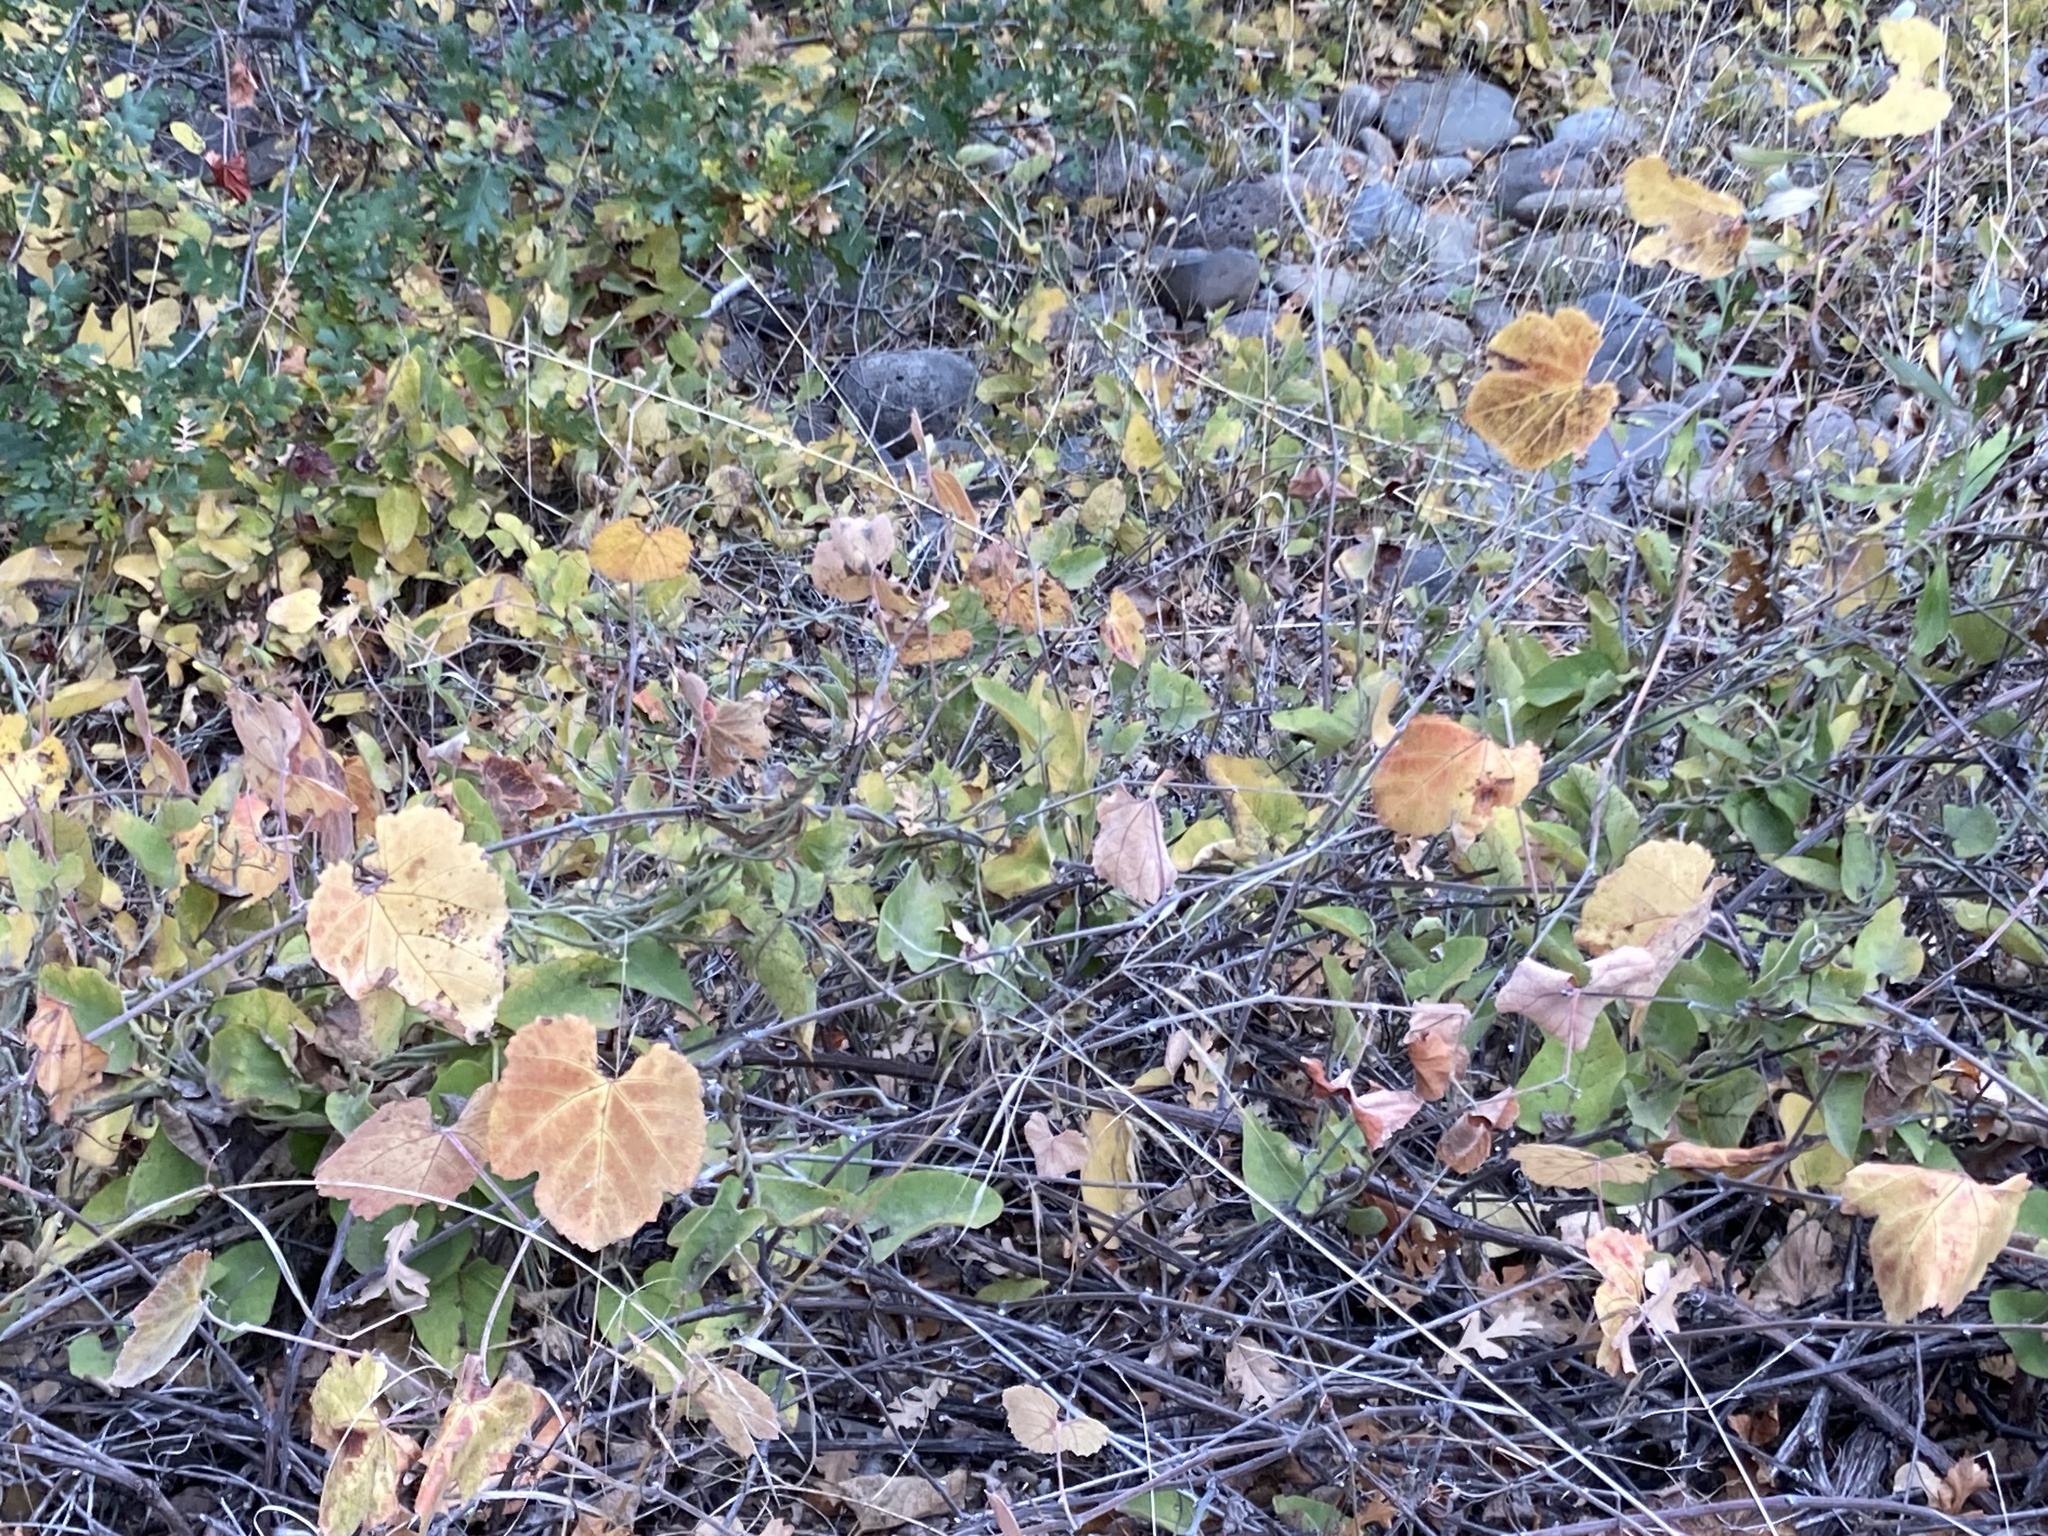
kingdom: Plantae
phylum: Tracheophyta
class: Magnoliopsida
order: Vitales
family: Vitaceae
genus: Vitis
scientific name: Vitis californica
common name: California wild grape
